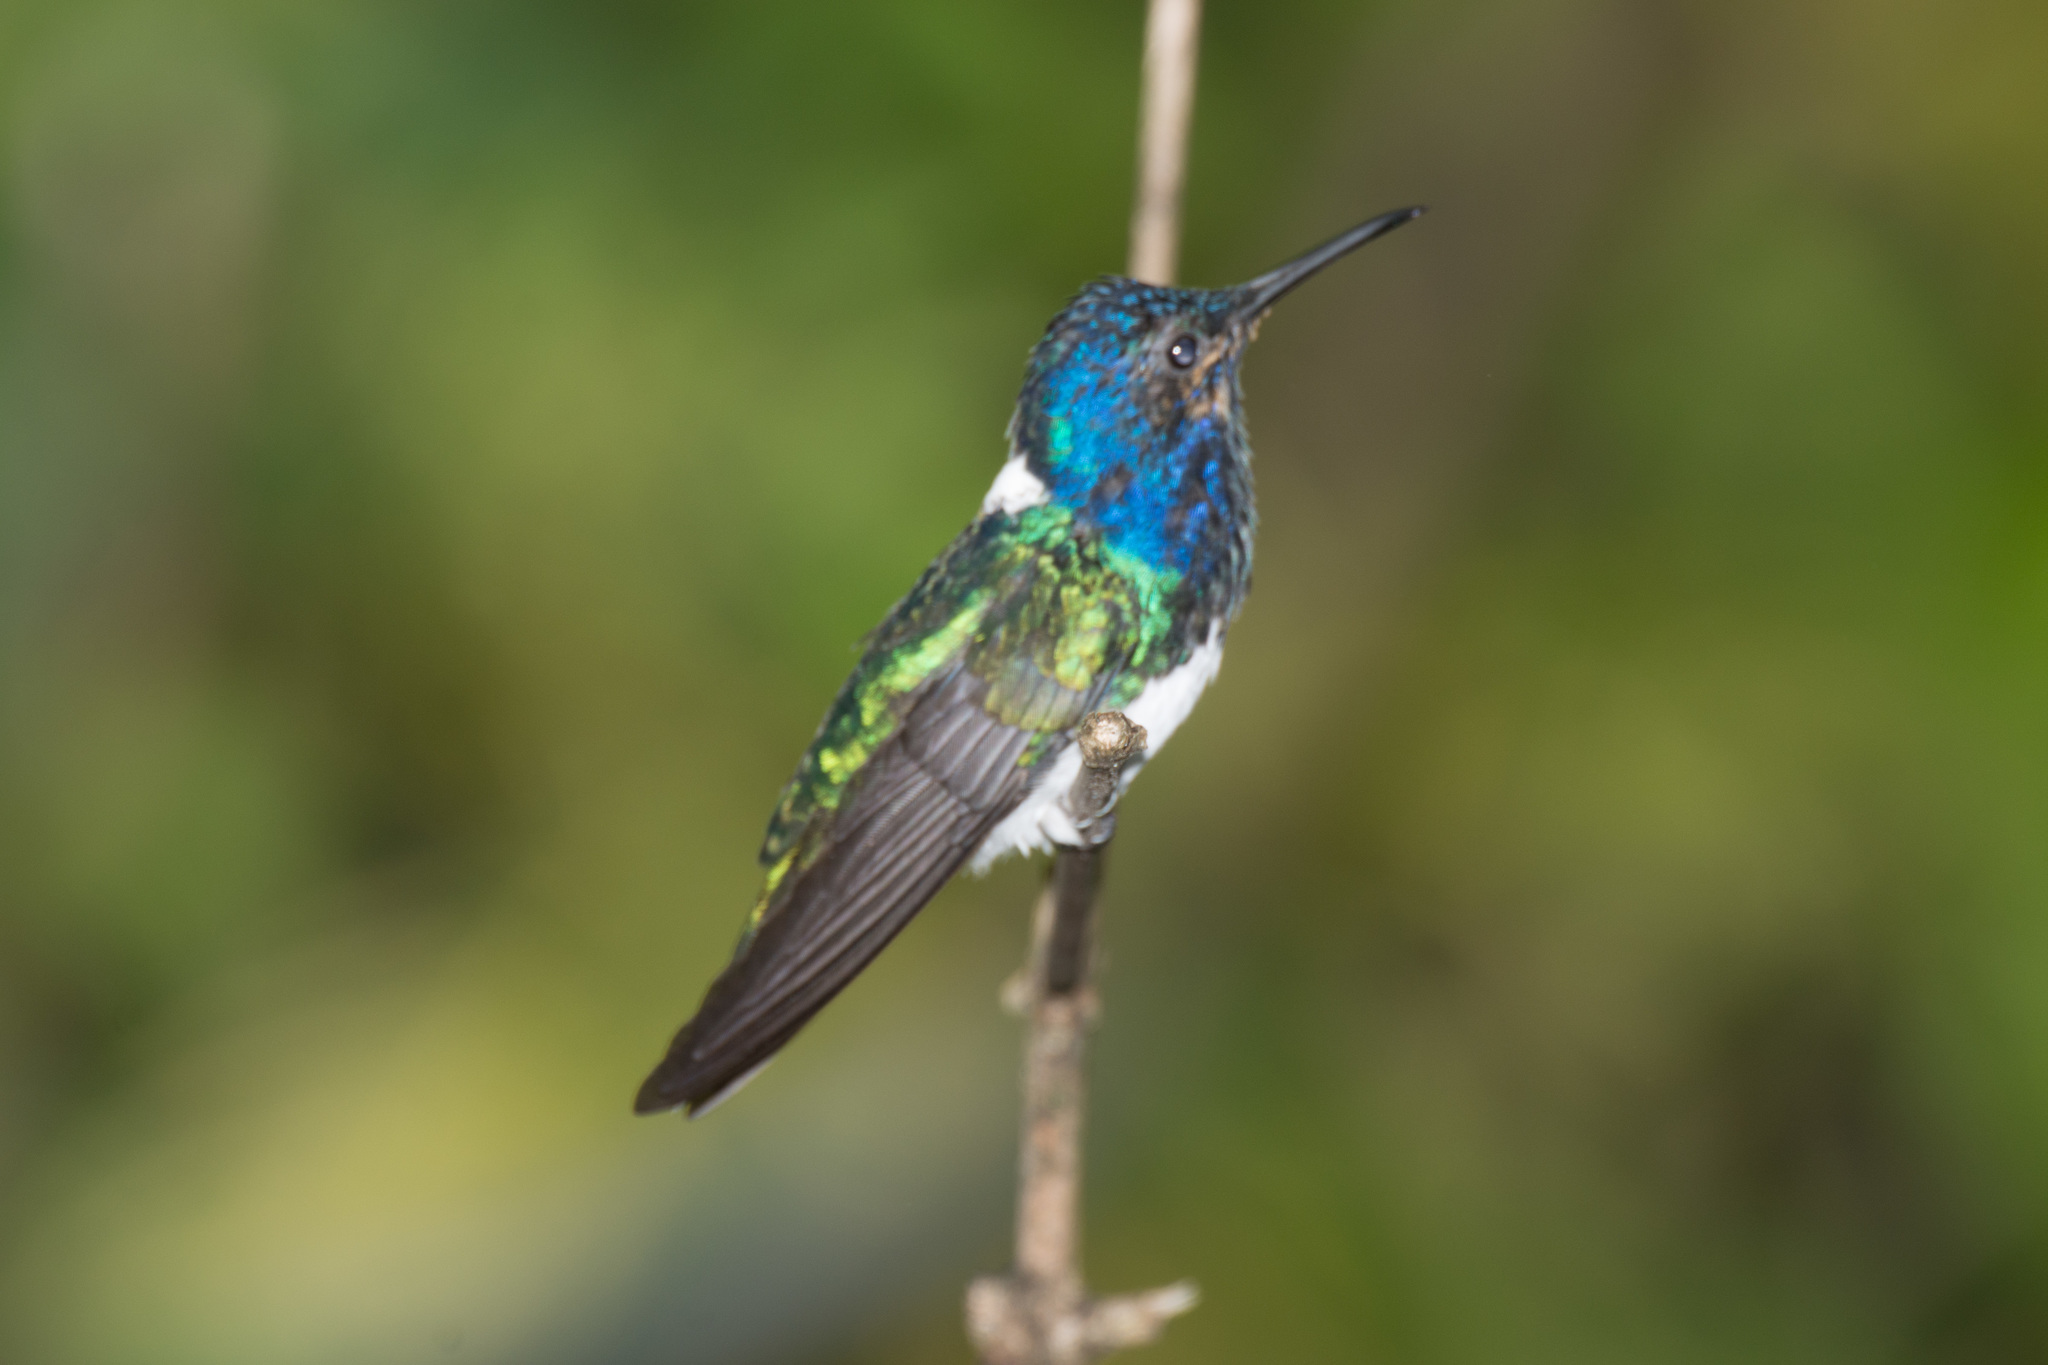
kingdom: Animalia
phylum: Chordata
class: Aves
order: Apodiformes
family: Trochilidae
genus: Florisuga
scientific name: Florisuga mellivora
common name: White-necked jacobin
